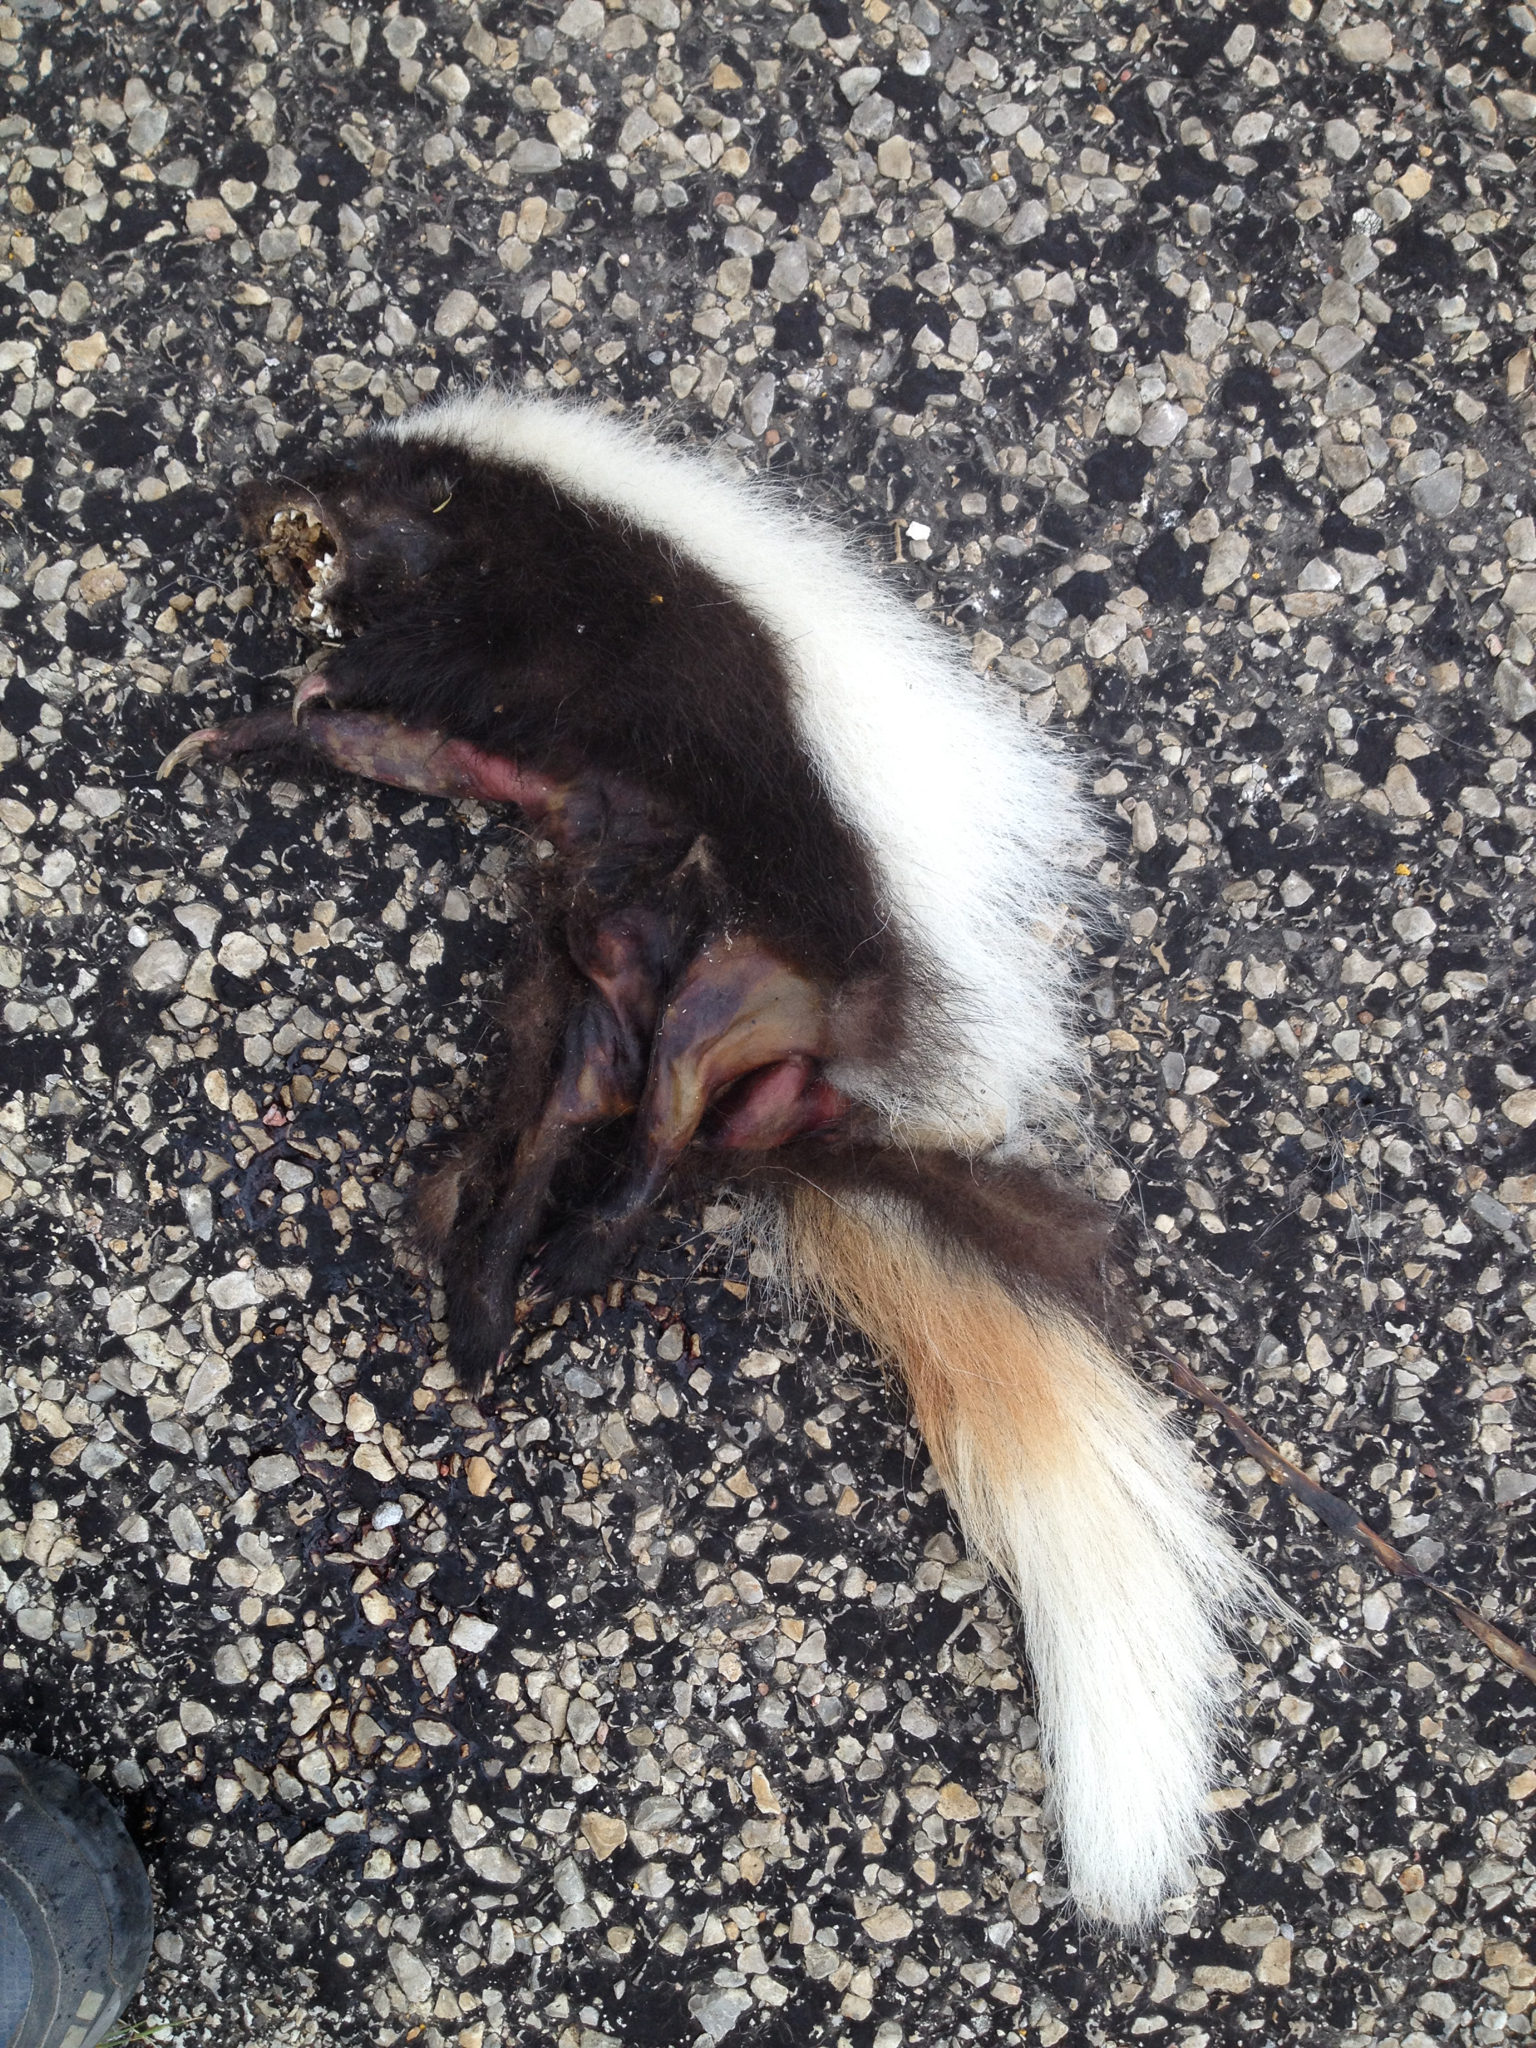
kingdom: Animalia
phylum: Chordata
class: Mammalia
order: Carnivora
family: Mephitidae
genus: Conepatus
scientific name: Conepatus leuconotus
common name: Eastern hog-nosed skunk
